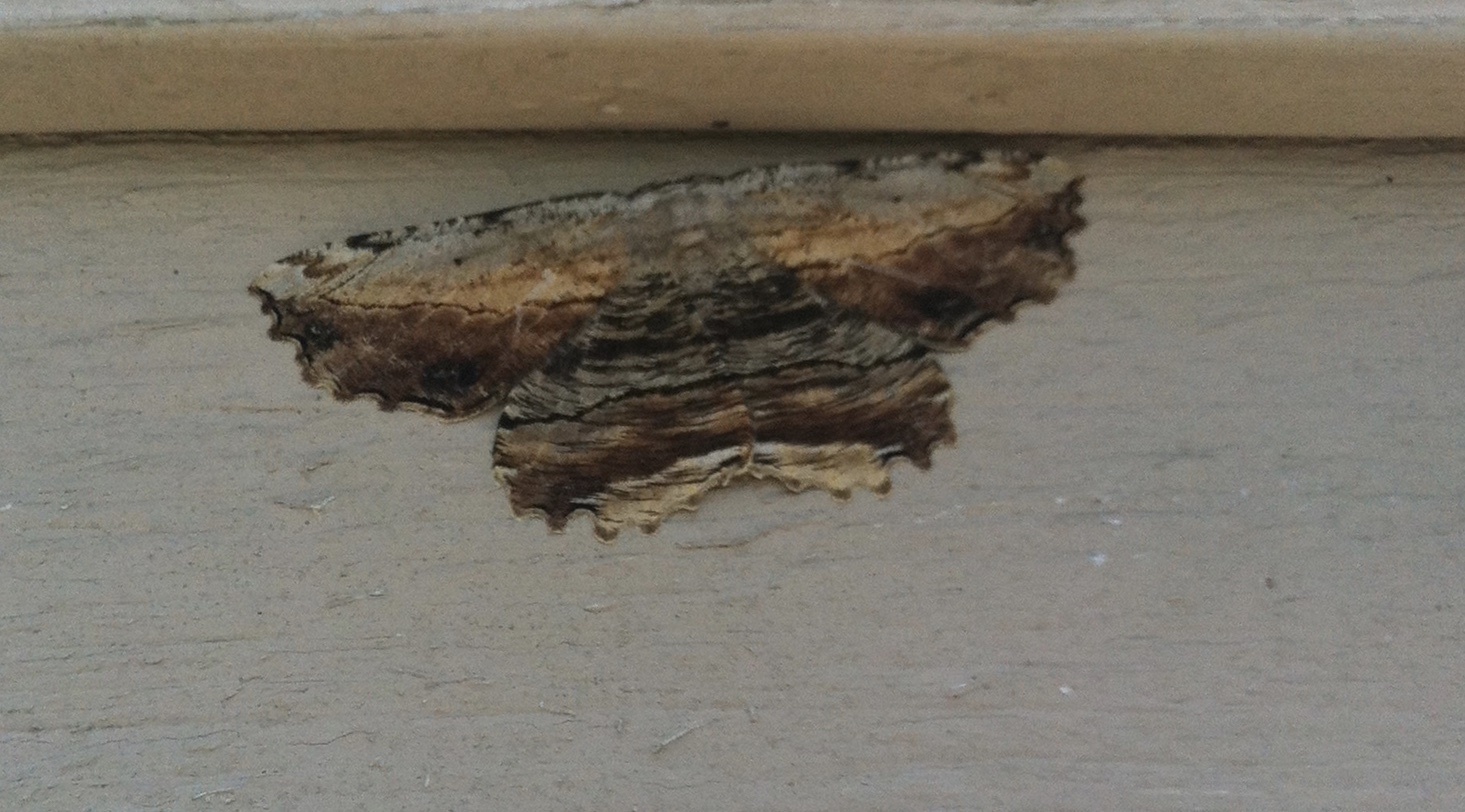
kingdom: Animalia
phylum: Arthropoda
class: Insecta
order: Lepidoptera
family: Geometridae
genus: Lytrosis
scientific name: Lytrosis unitaria
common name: Common lytrosis
